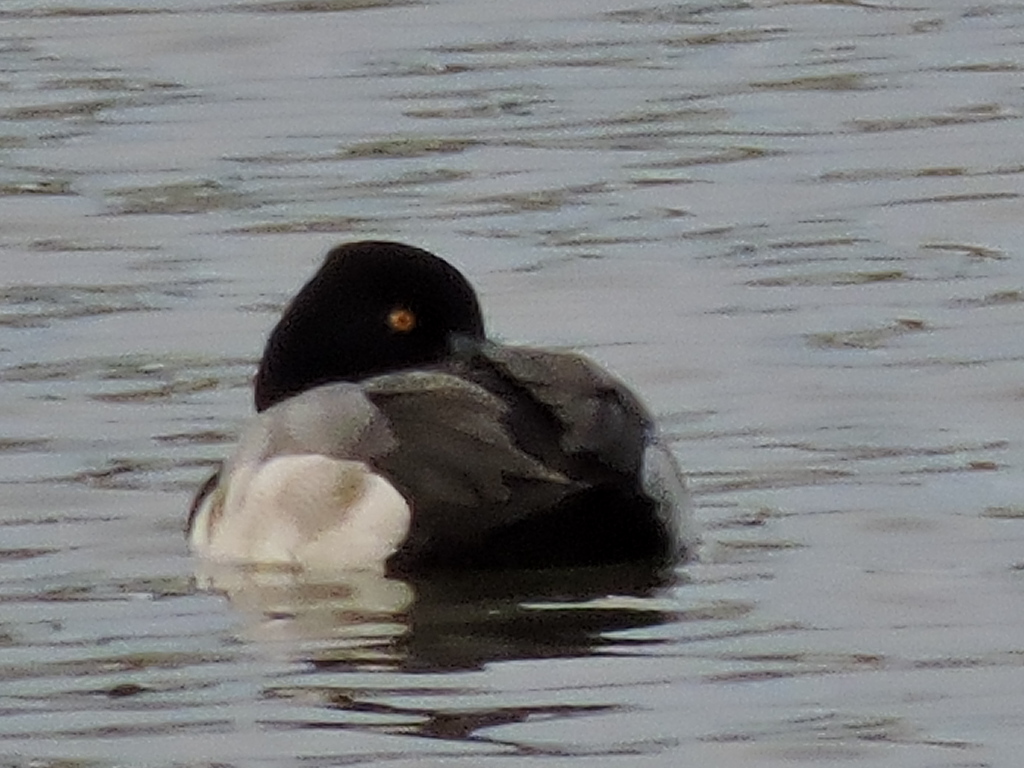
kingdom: Animalia
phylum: Chordata
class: Aves
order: Anseriformes
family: Anatidae
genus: Aythya
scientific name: Aythya affinis
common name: Lesser scaup
